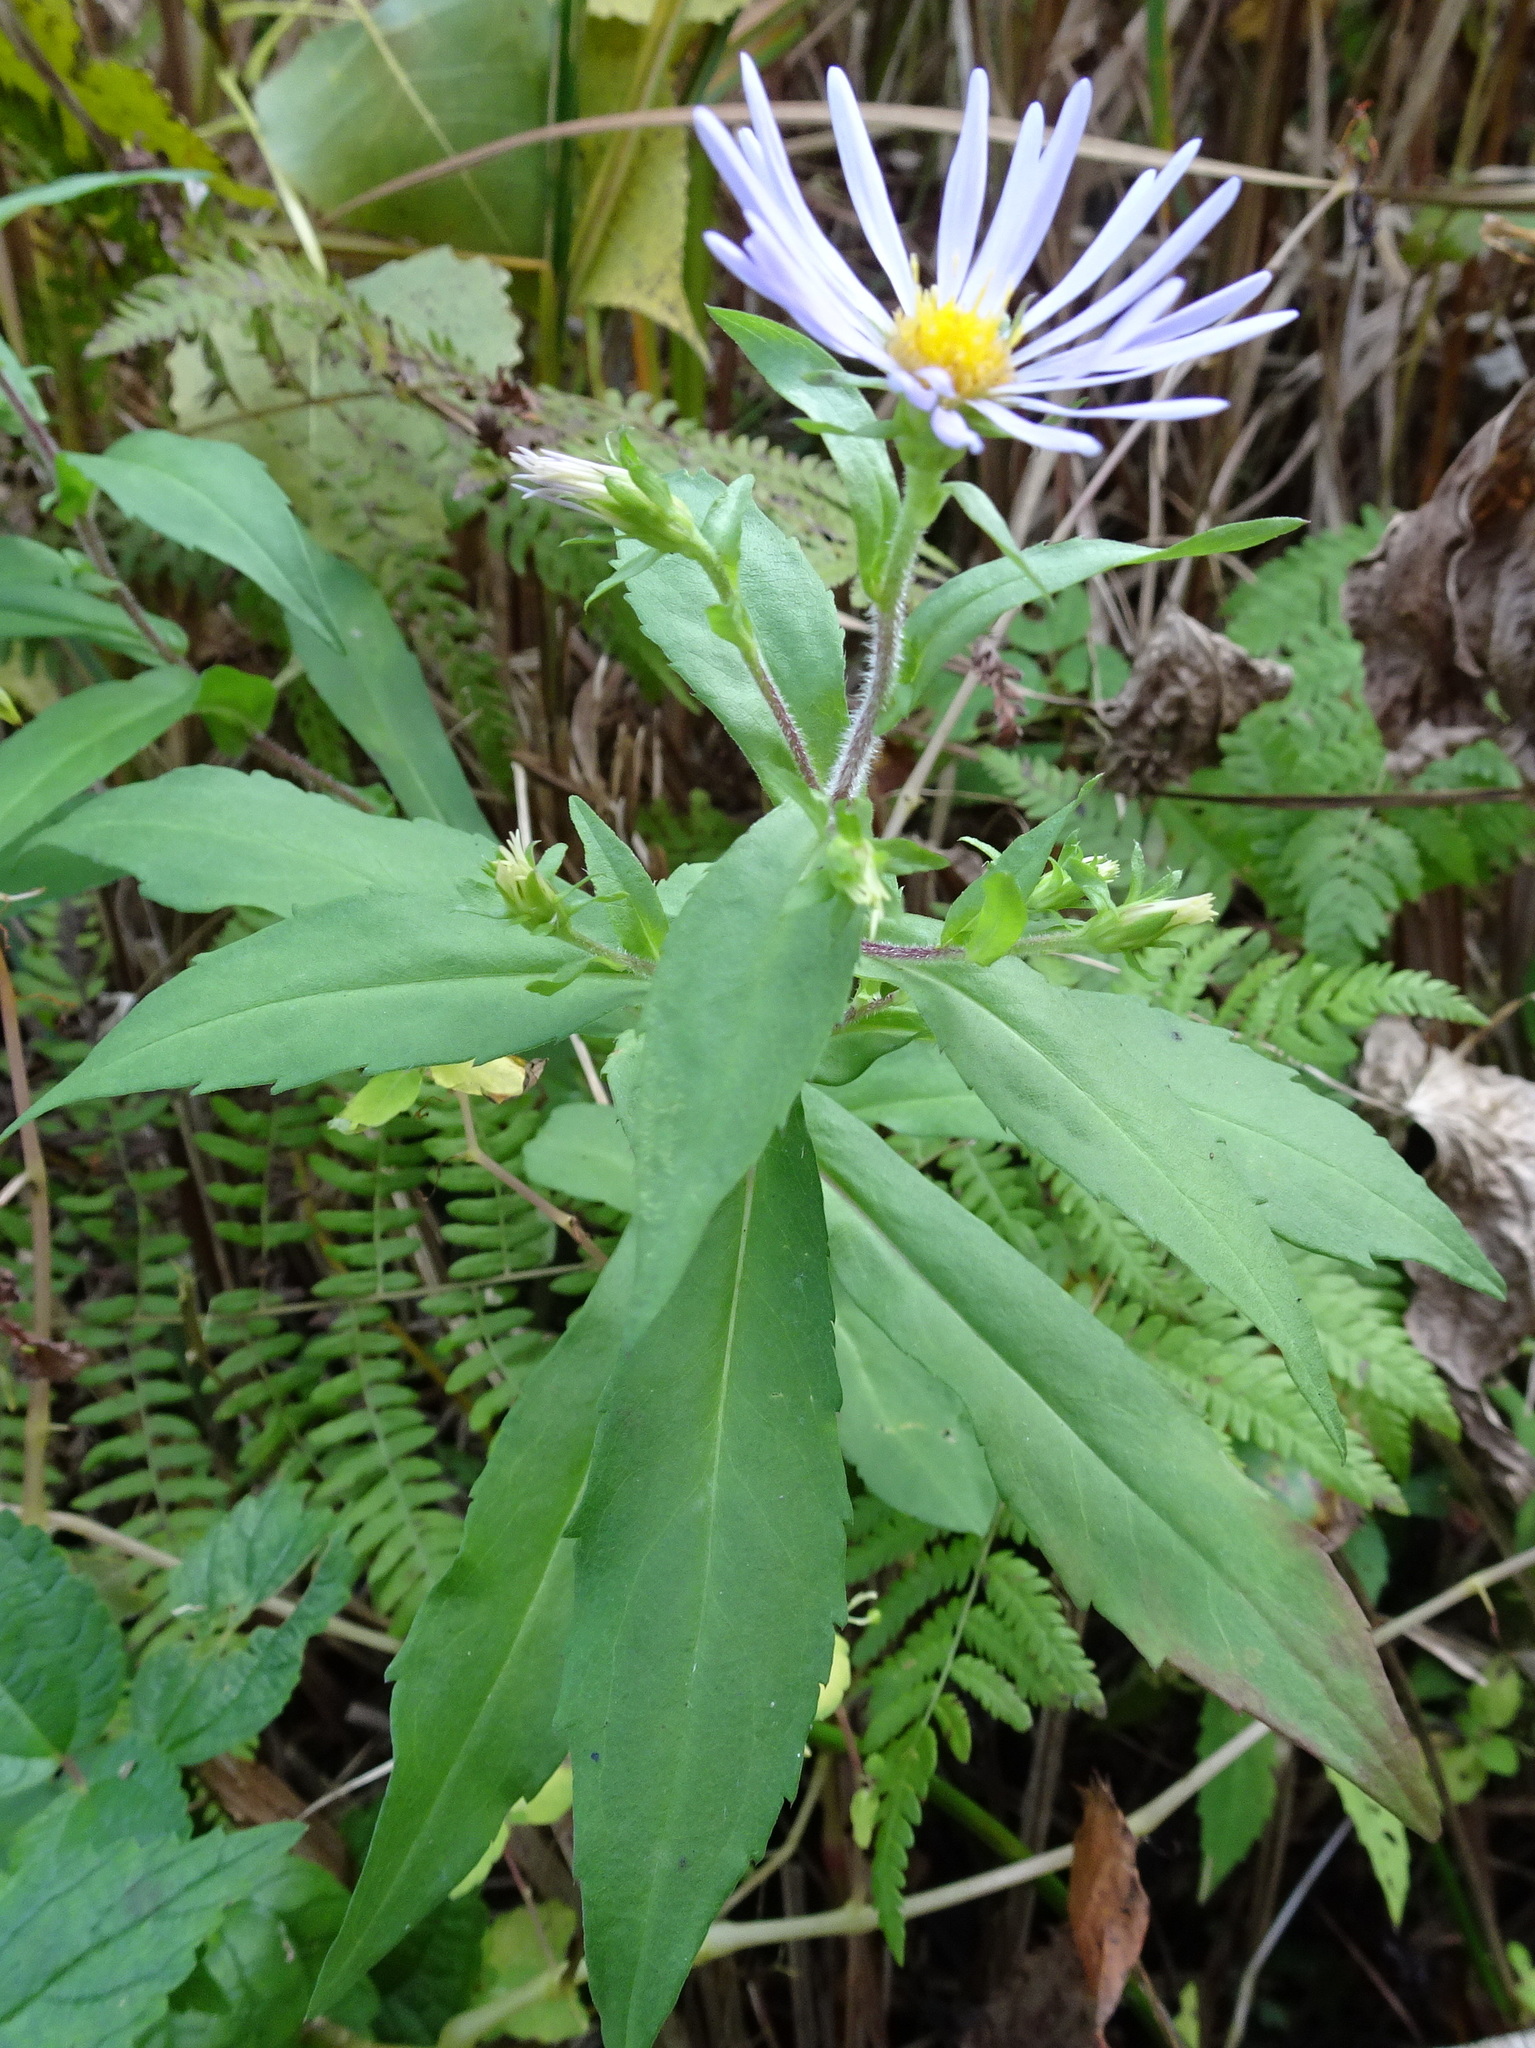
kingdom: Plantae
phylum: Tracheophyta
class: Magnoliopsida
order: Asterales
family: Asteraceae
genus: Symphyotrichum
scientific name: Symphyotrichum puniceum
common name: Bog aster
